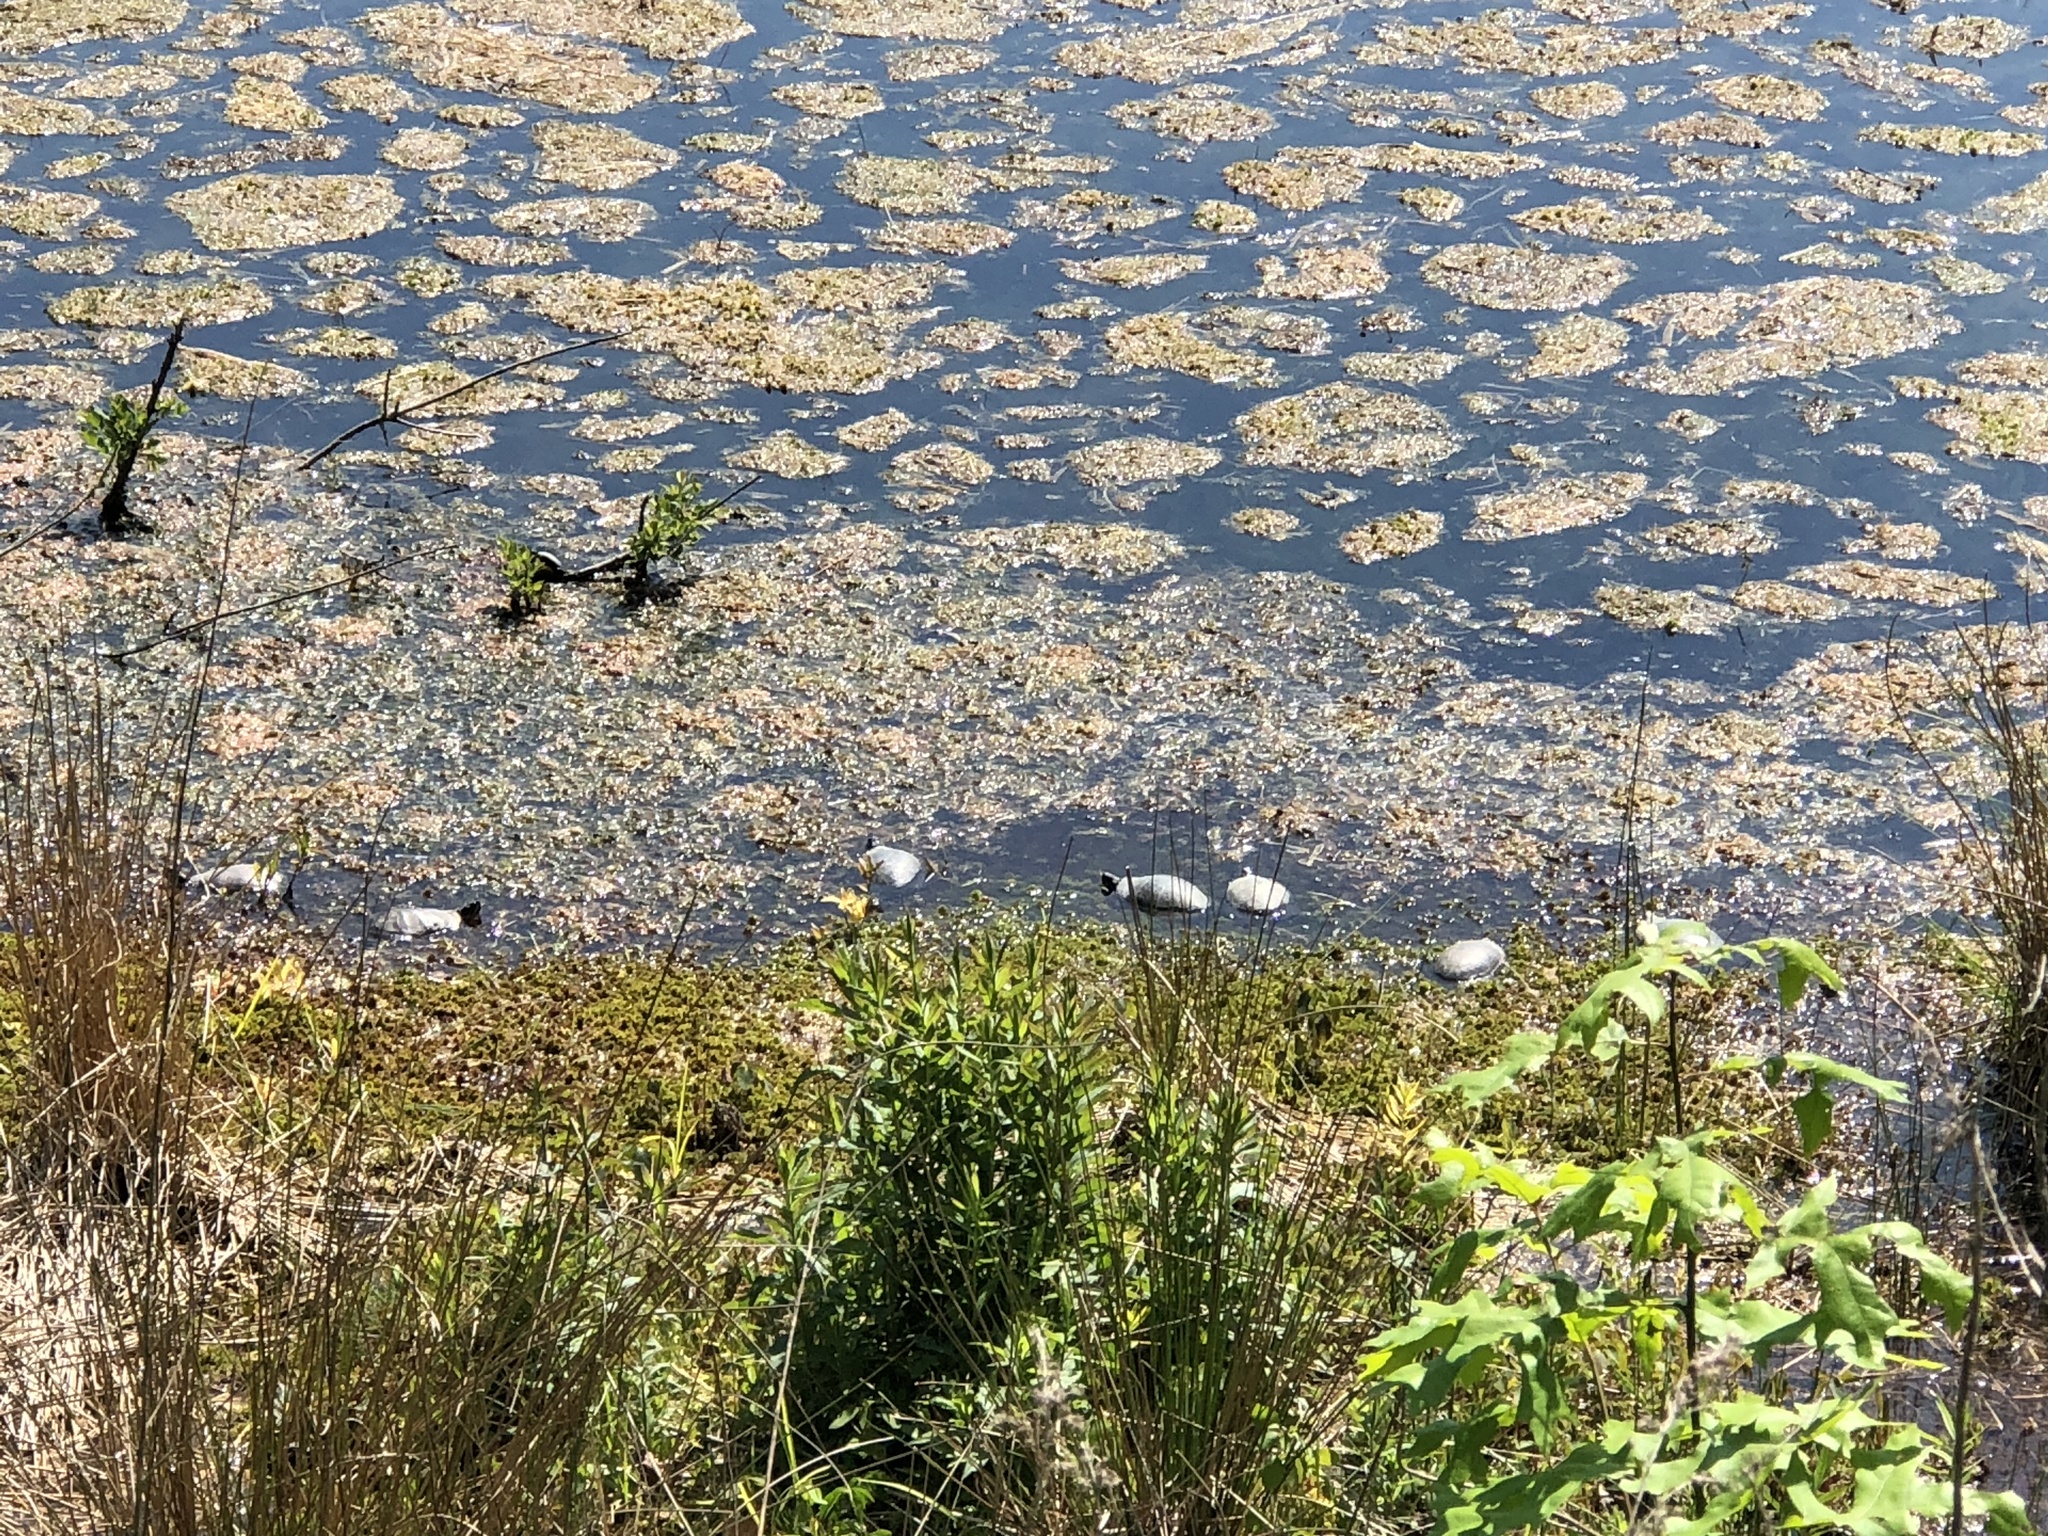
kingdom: Animalia
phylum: Chordata
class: Testudines
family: Emydidae
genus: Chrysemys
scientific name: Chrysemys picta
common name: Painted turtle
